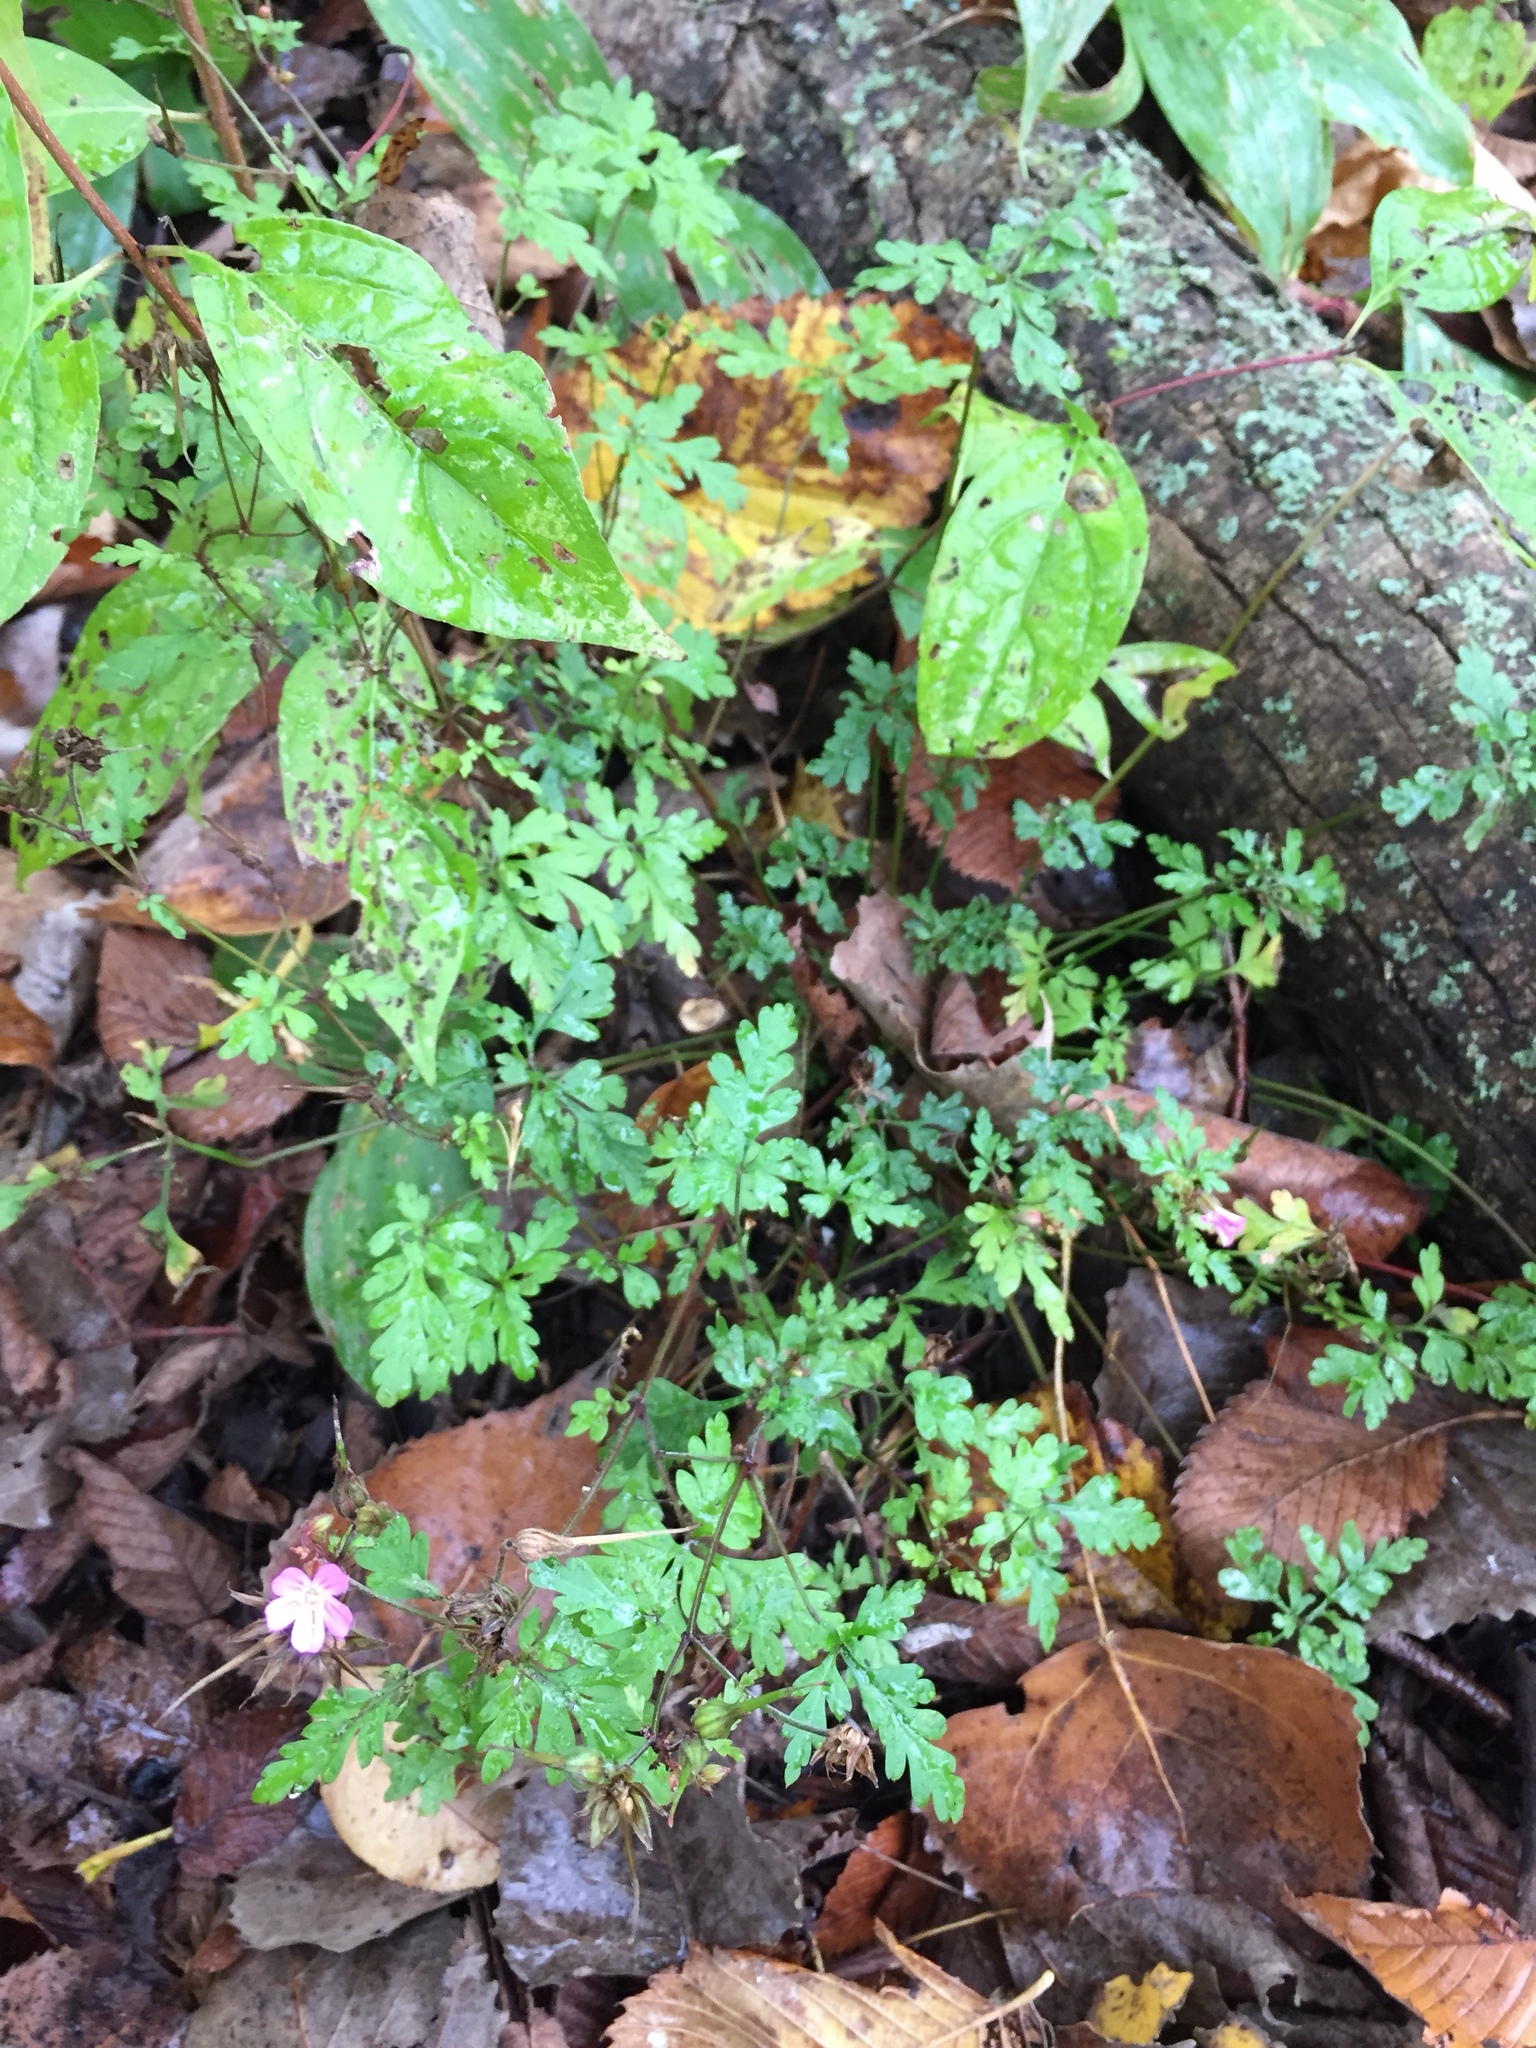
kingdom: Plantae
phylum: Tracheophyta
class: Magnoliopsida
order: Geraniales
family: Geraniaceae
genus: Geranium
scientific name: Geranium robertianum
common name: Herb-robert
